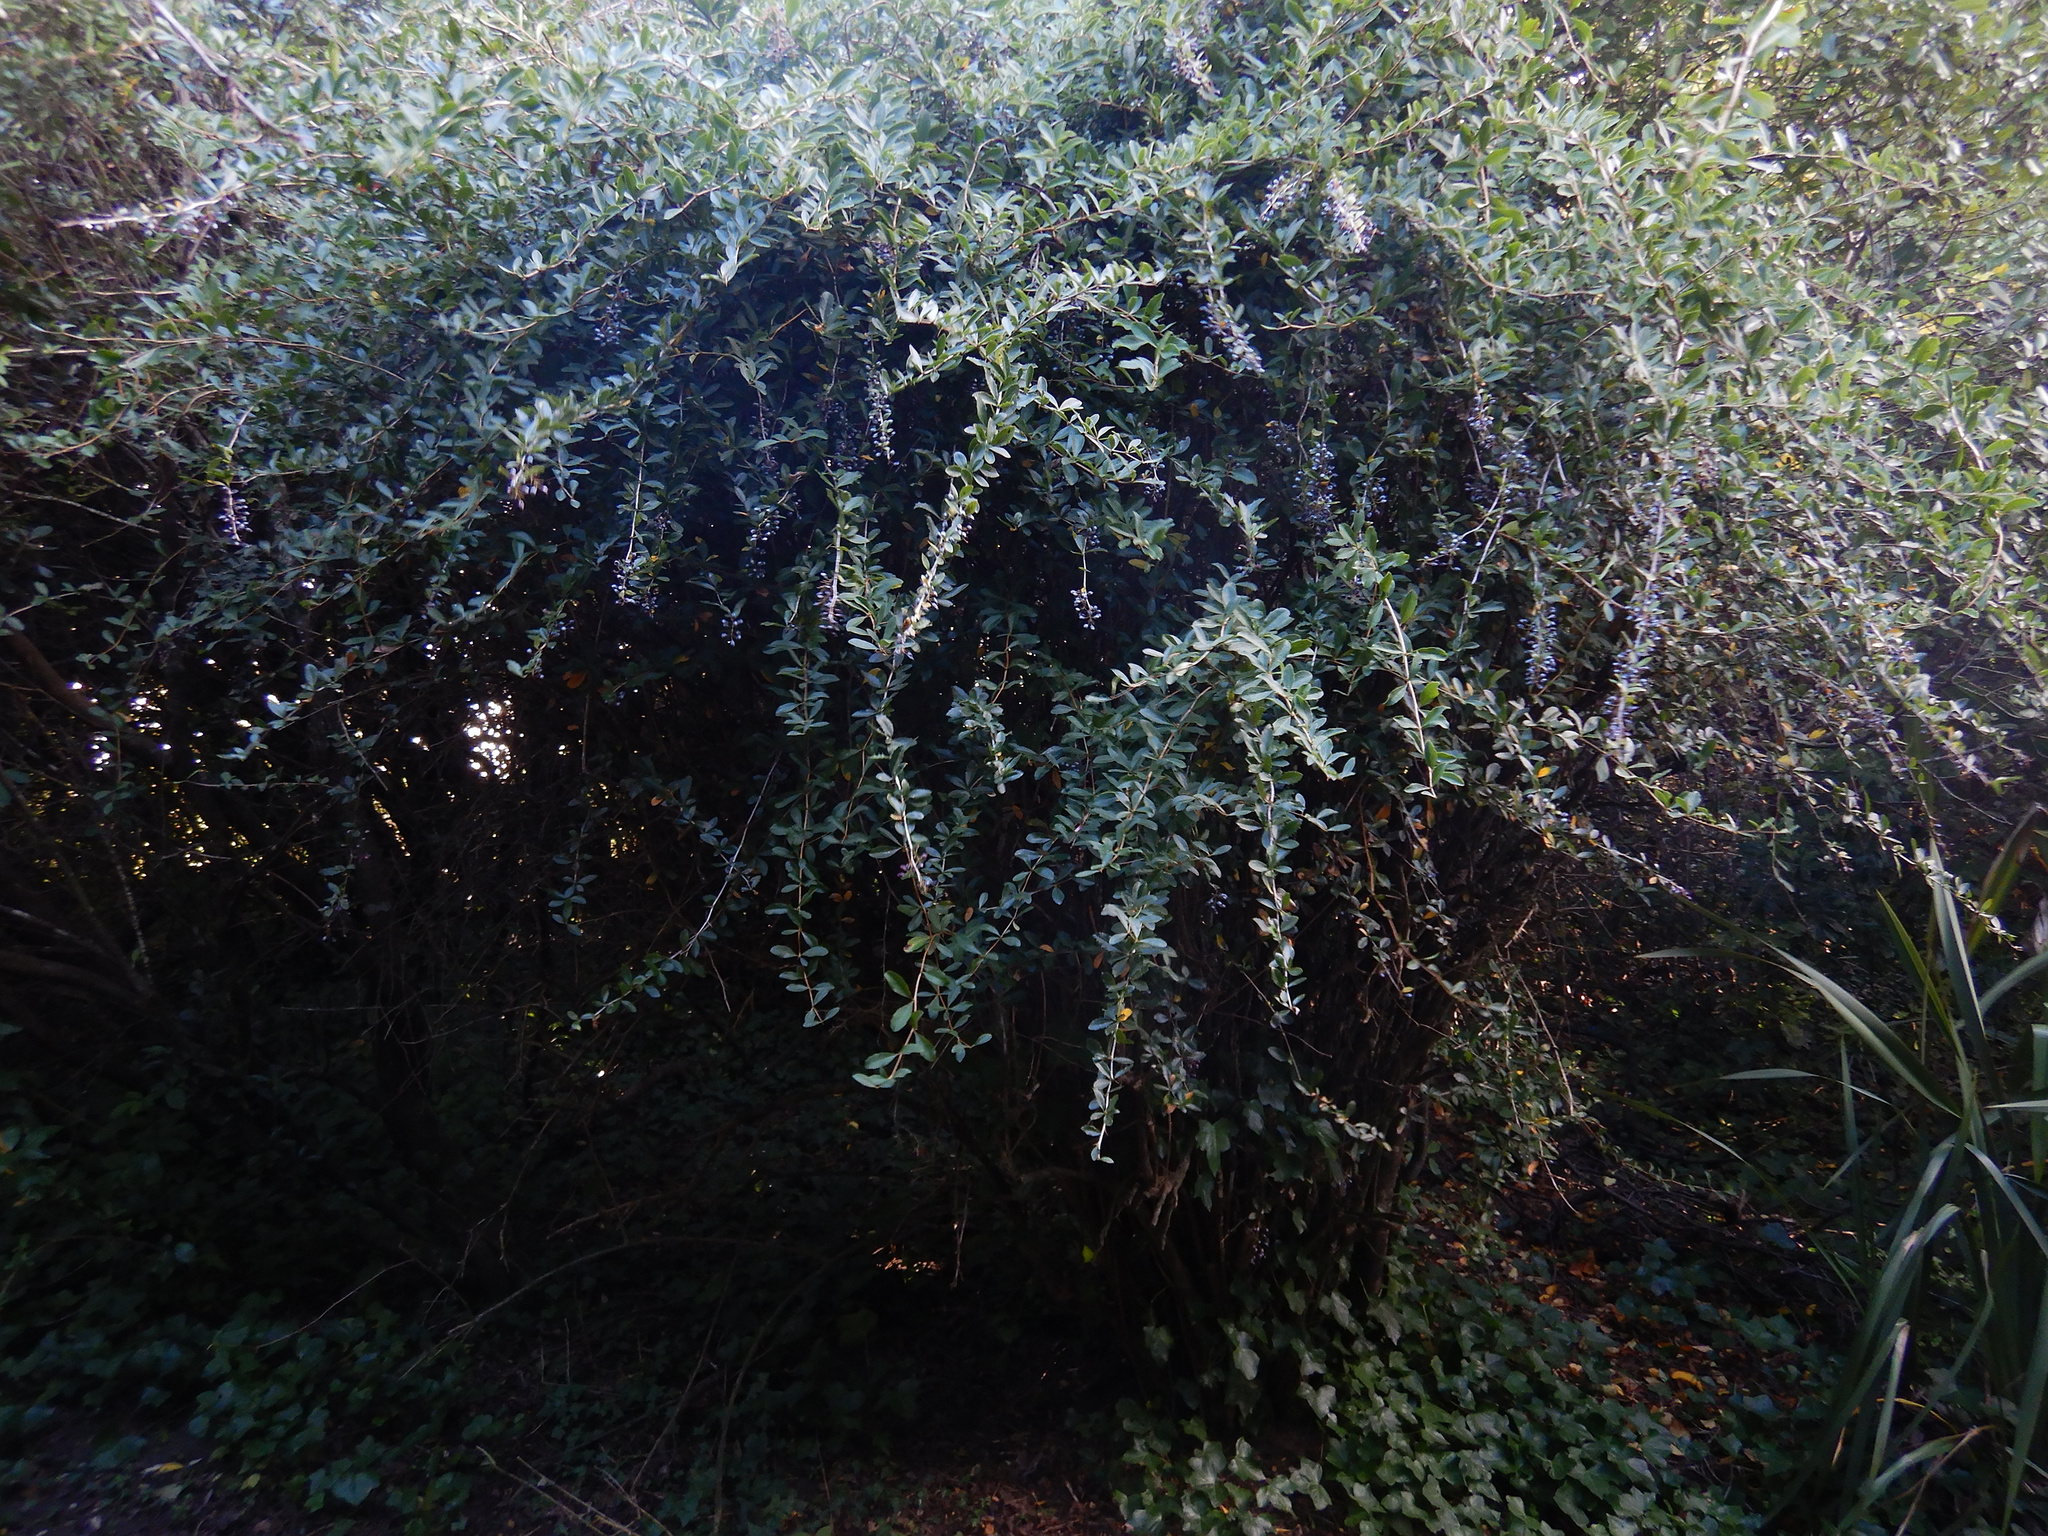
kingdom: Plantae
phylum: Tracheophyta
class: Magnoliopsida
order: Ranunculales
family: Berberidaceae
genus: Berberis
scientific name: Berberis glaucocarpa
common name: Great barberry
